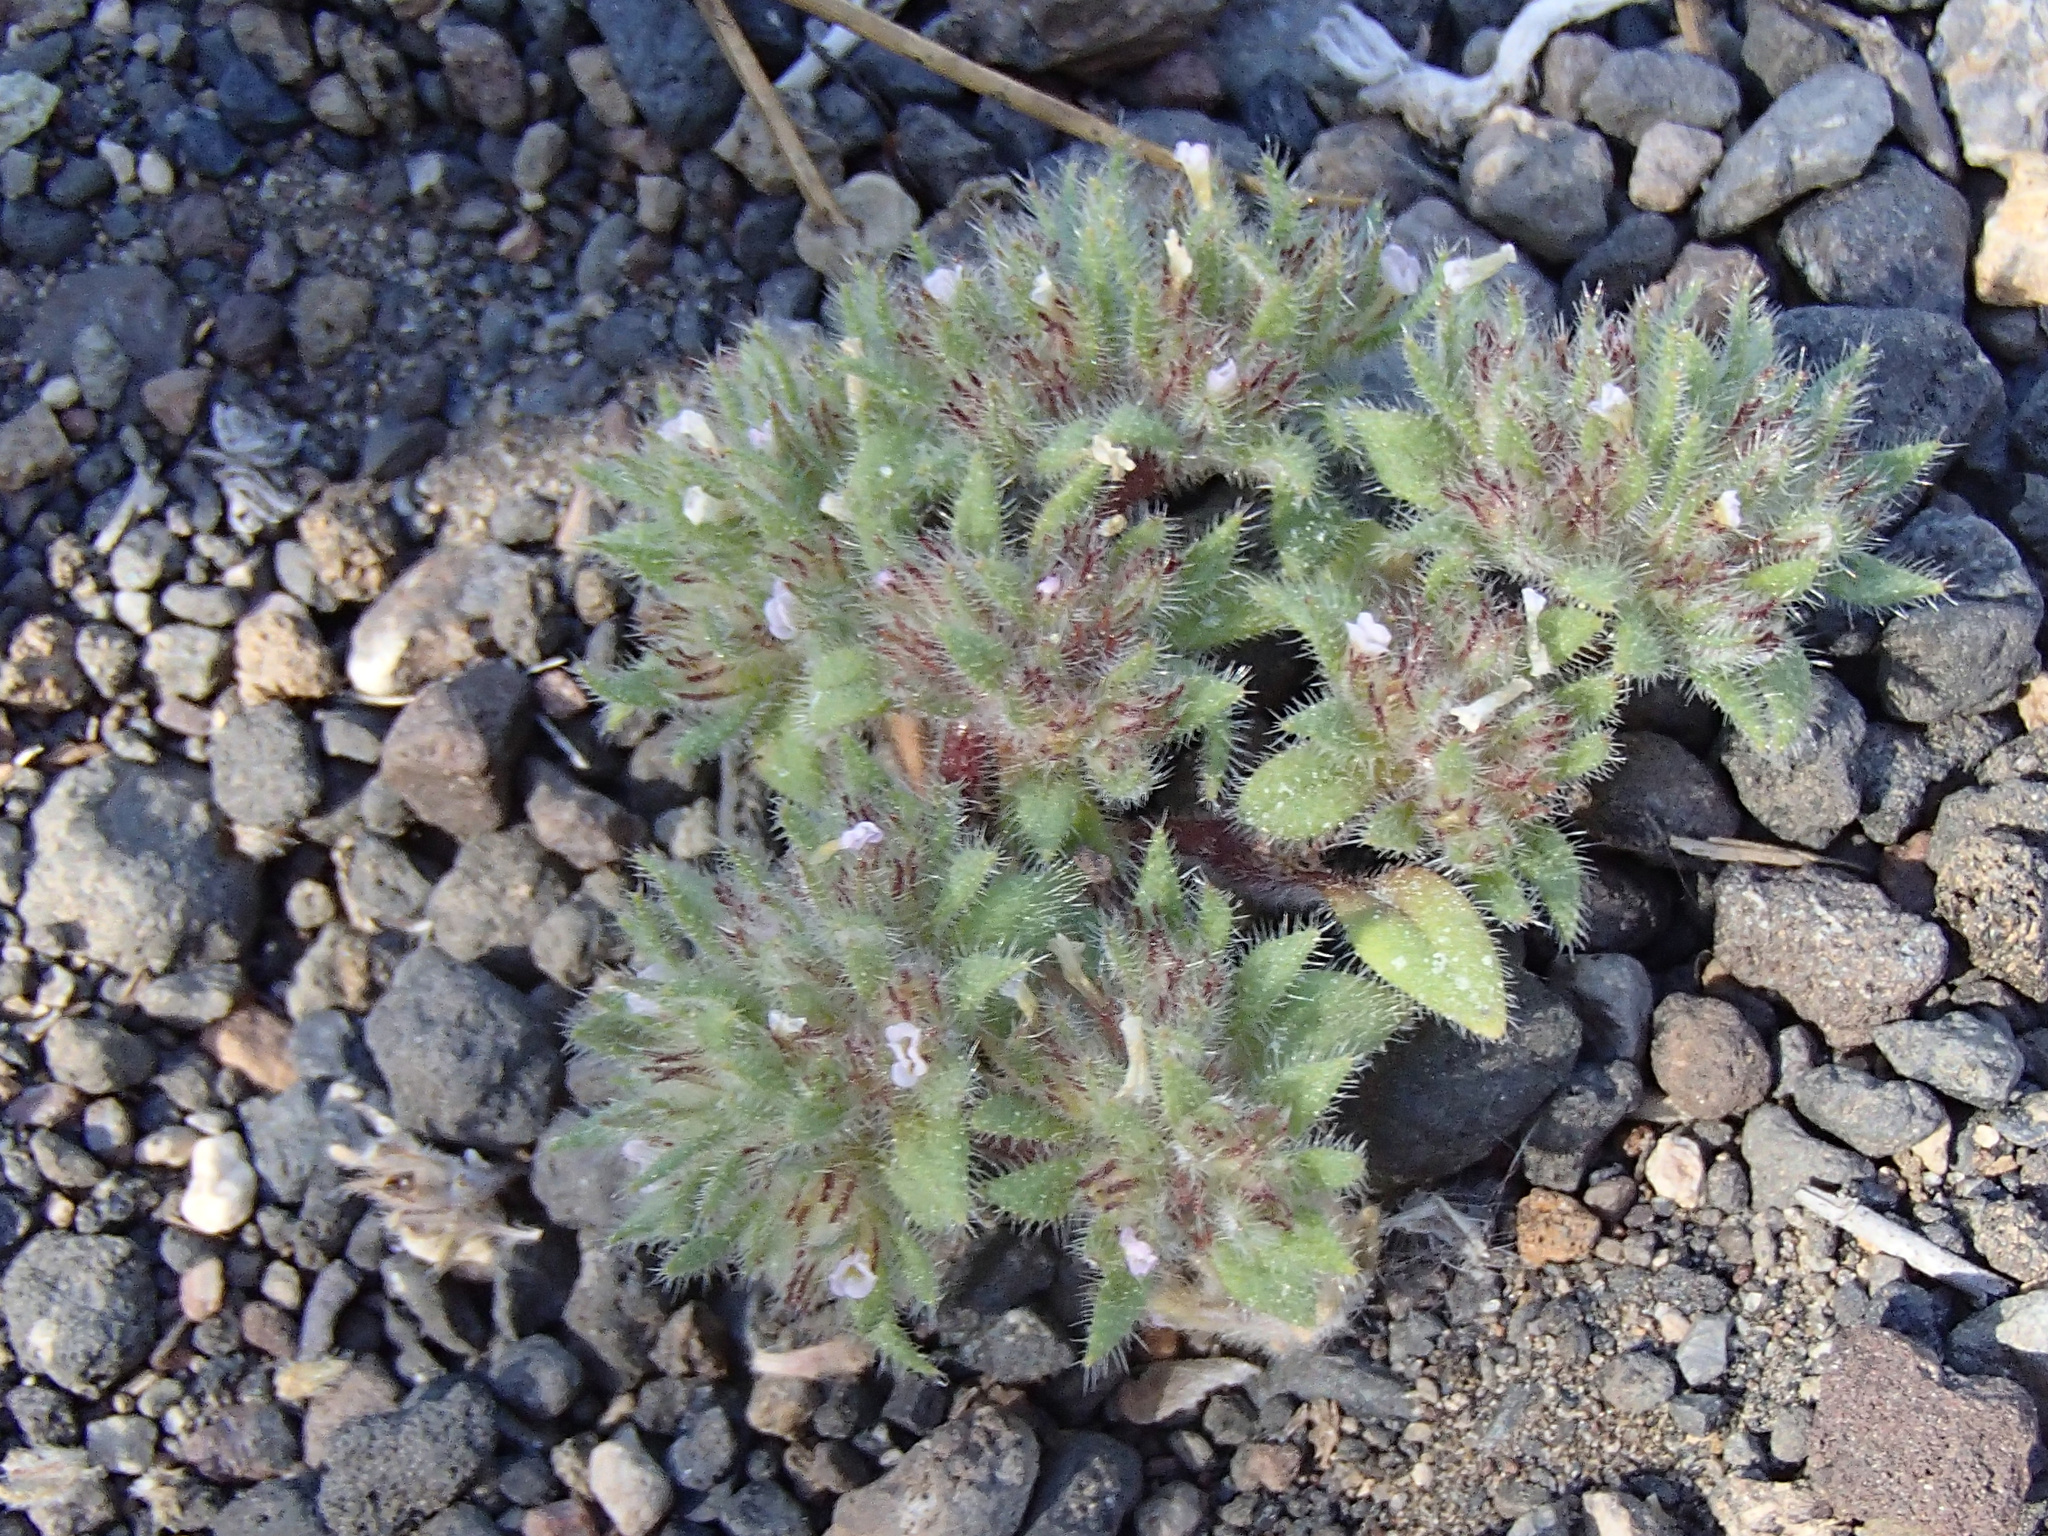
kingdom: Plantae
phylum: Tracheophyta
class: Magnoliopsida
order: Boraginales
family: Namaceae
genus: Nama
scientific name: Nama densa
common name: Leafy nama
